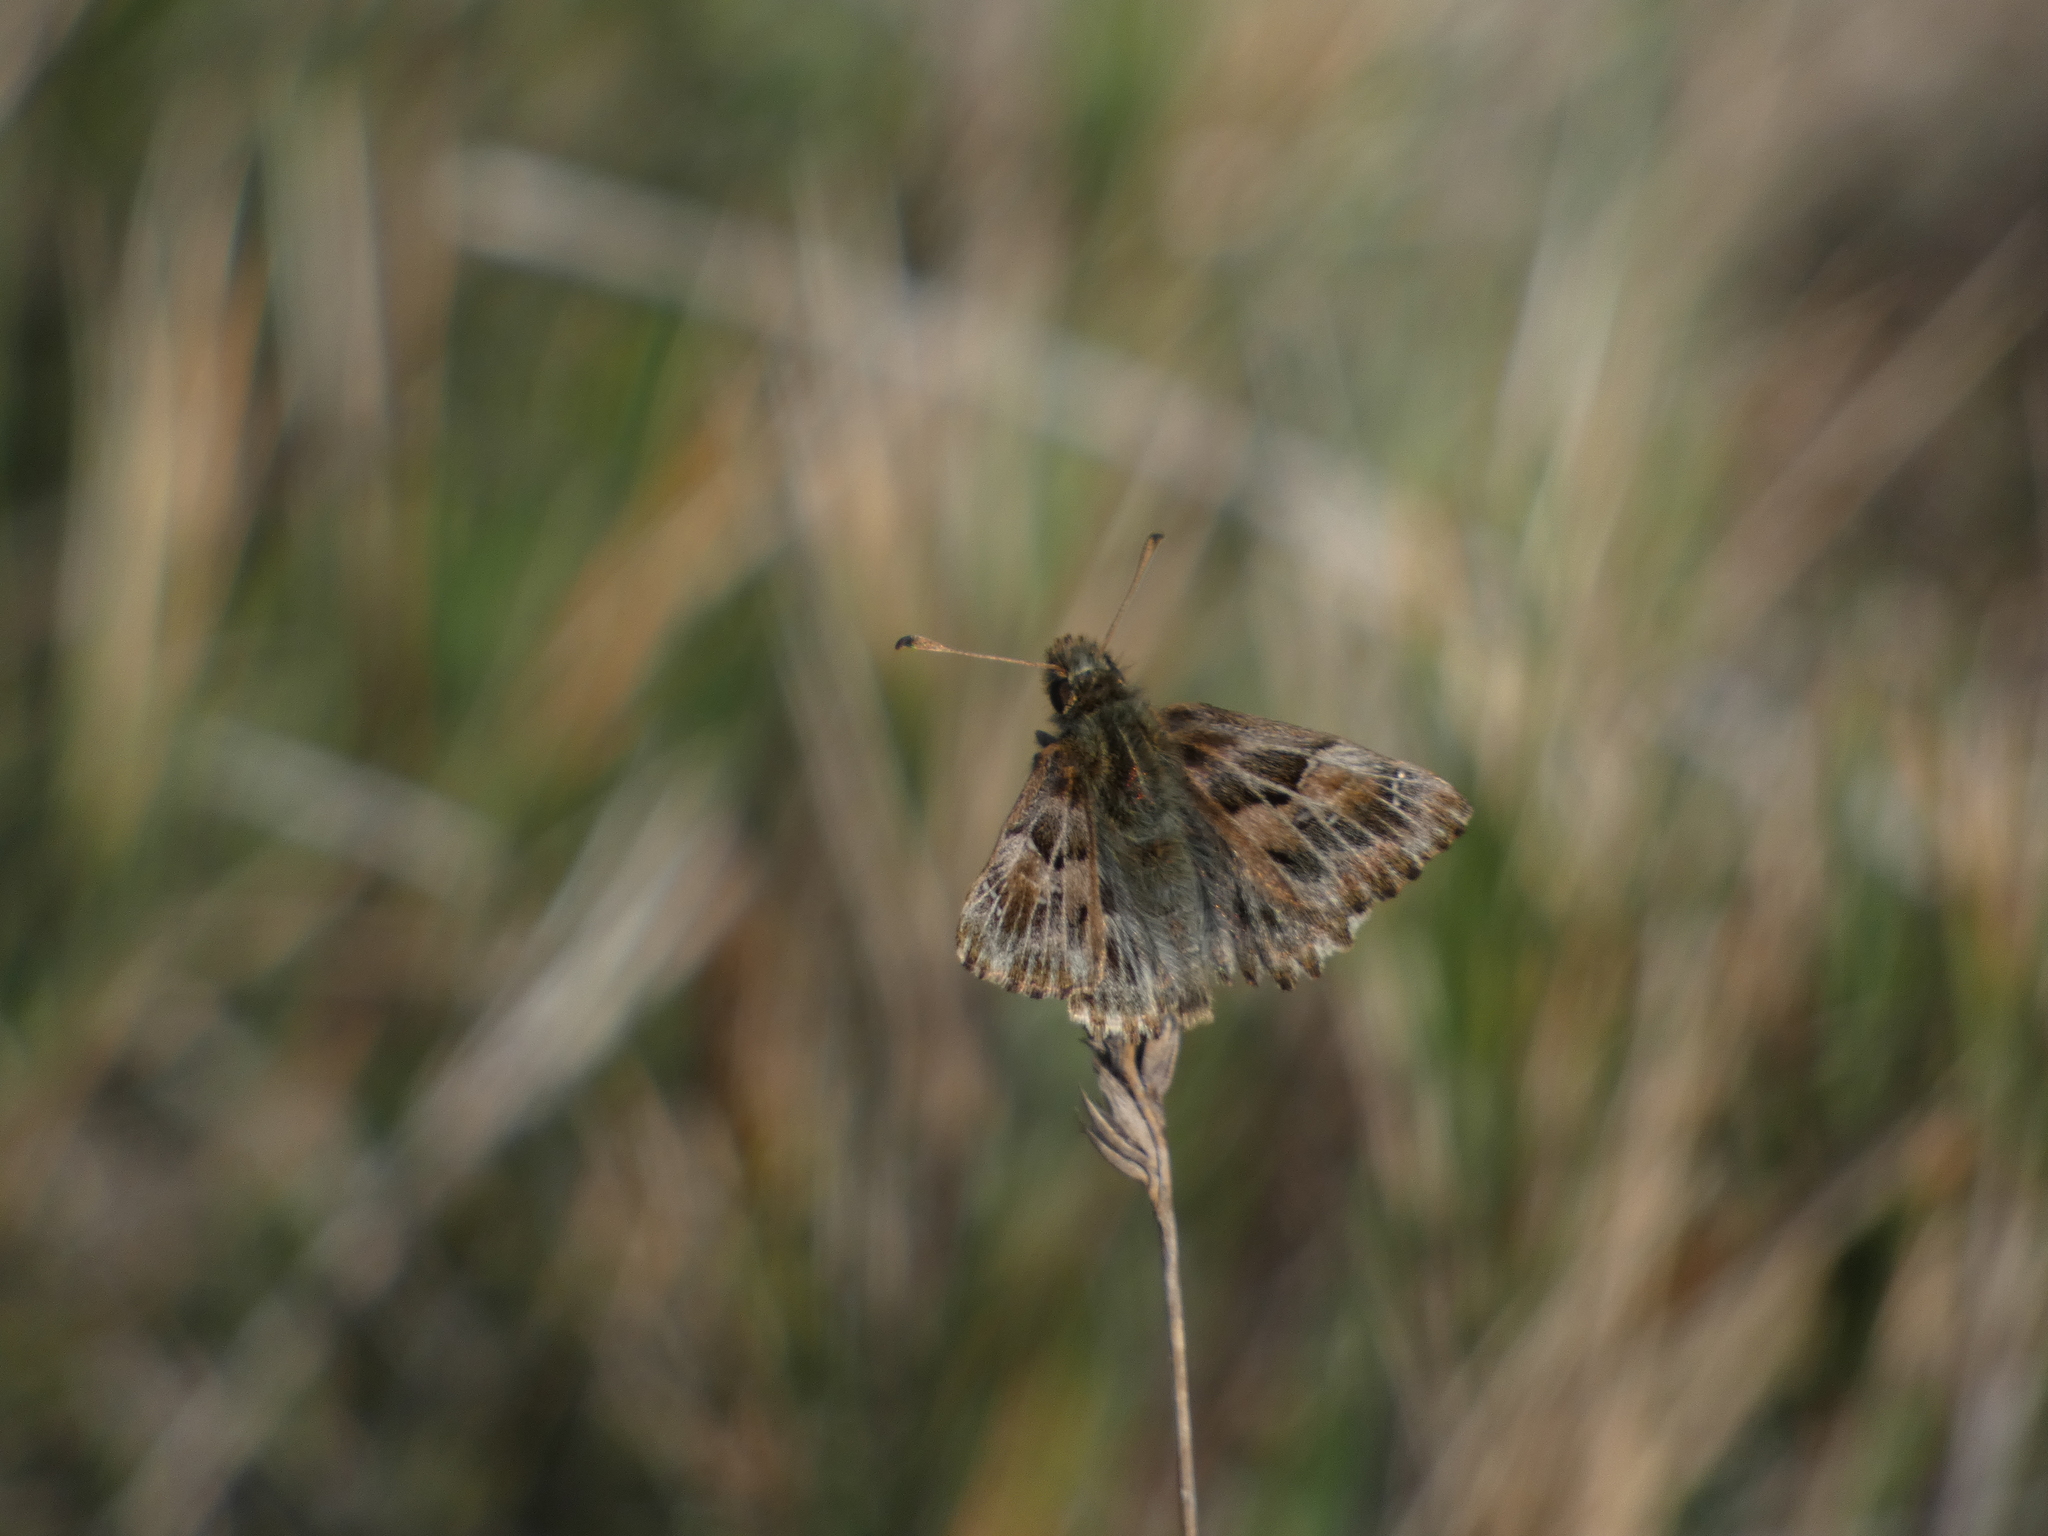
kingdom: Animalia
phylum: Arthropoda
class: Insecta
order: Lepidoptera
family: Hesperiidae
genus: Carcharodus
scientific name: Carcharodus alceae
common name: Mallow skipper
